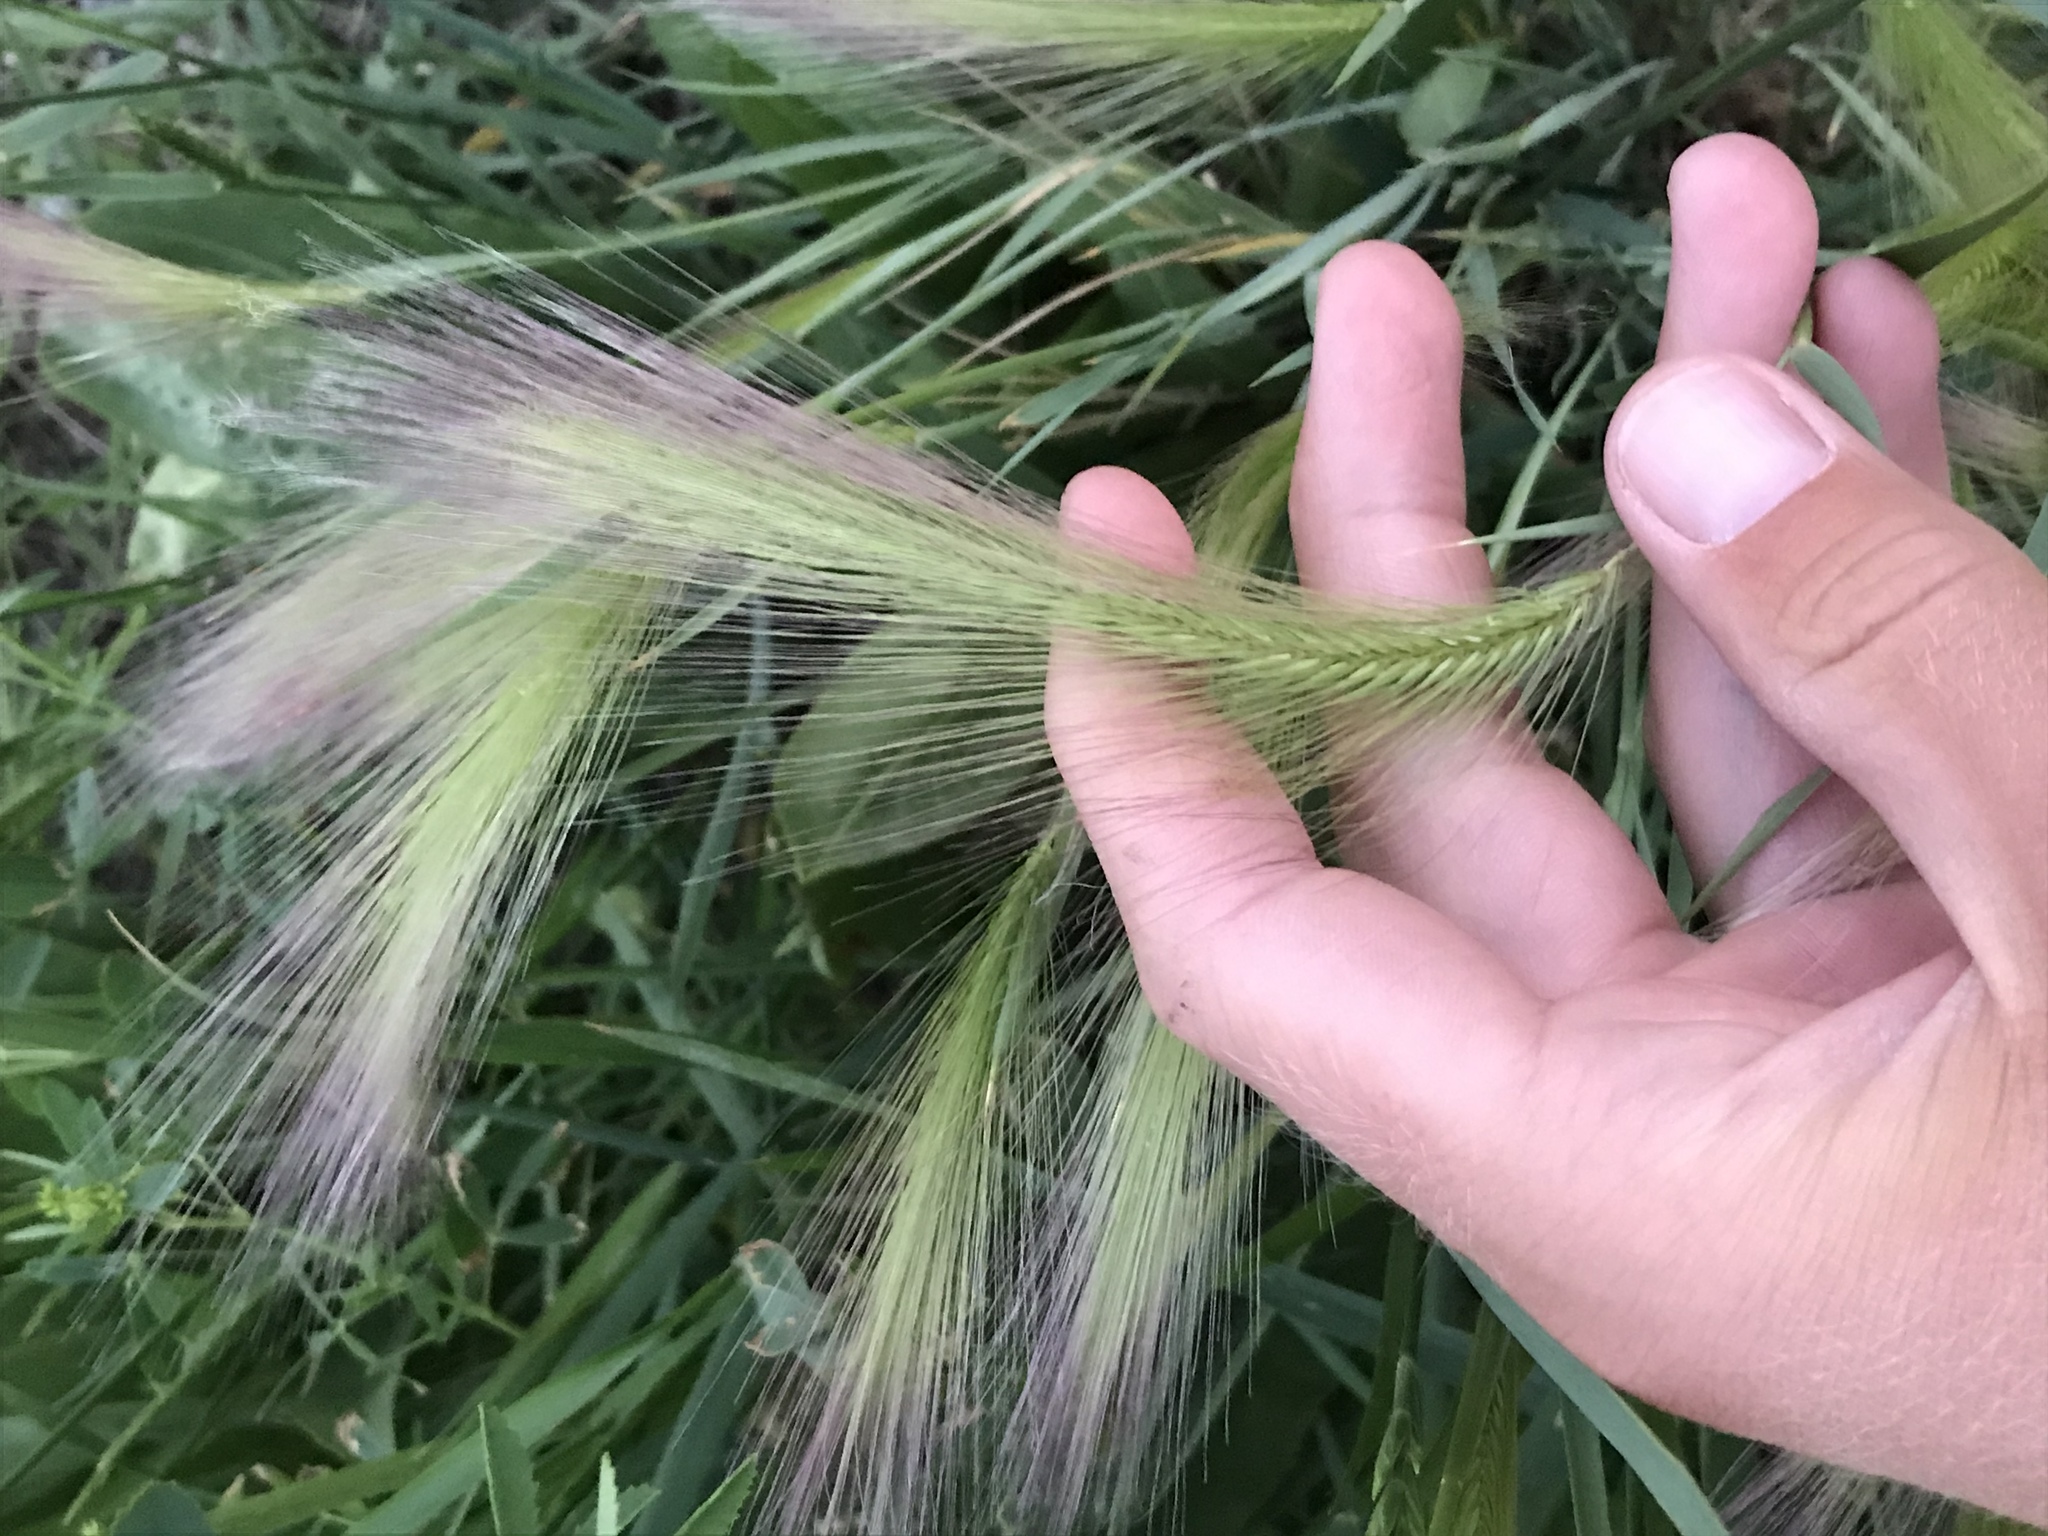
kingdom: Plantae
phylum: Tracheophyta
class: Liliopsida
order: Poales
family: Poaceae
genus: Hordeum
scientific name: Hordeum jubatum
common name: Foxtail barley
